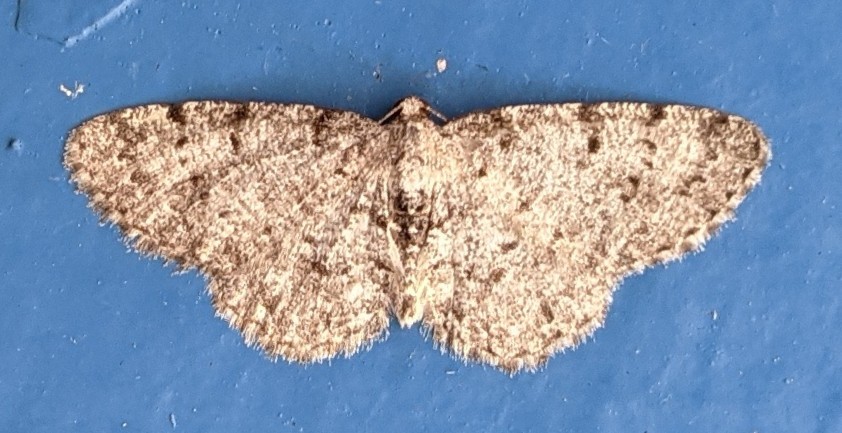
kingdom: Animalia
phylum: Arthropoda
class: Insecta
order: Lepidoptera
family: Geometridae
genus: Aethalura
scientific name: Aethalura intertexta
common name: Four-barred gray
